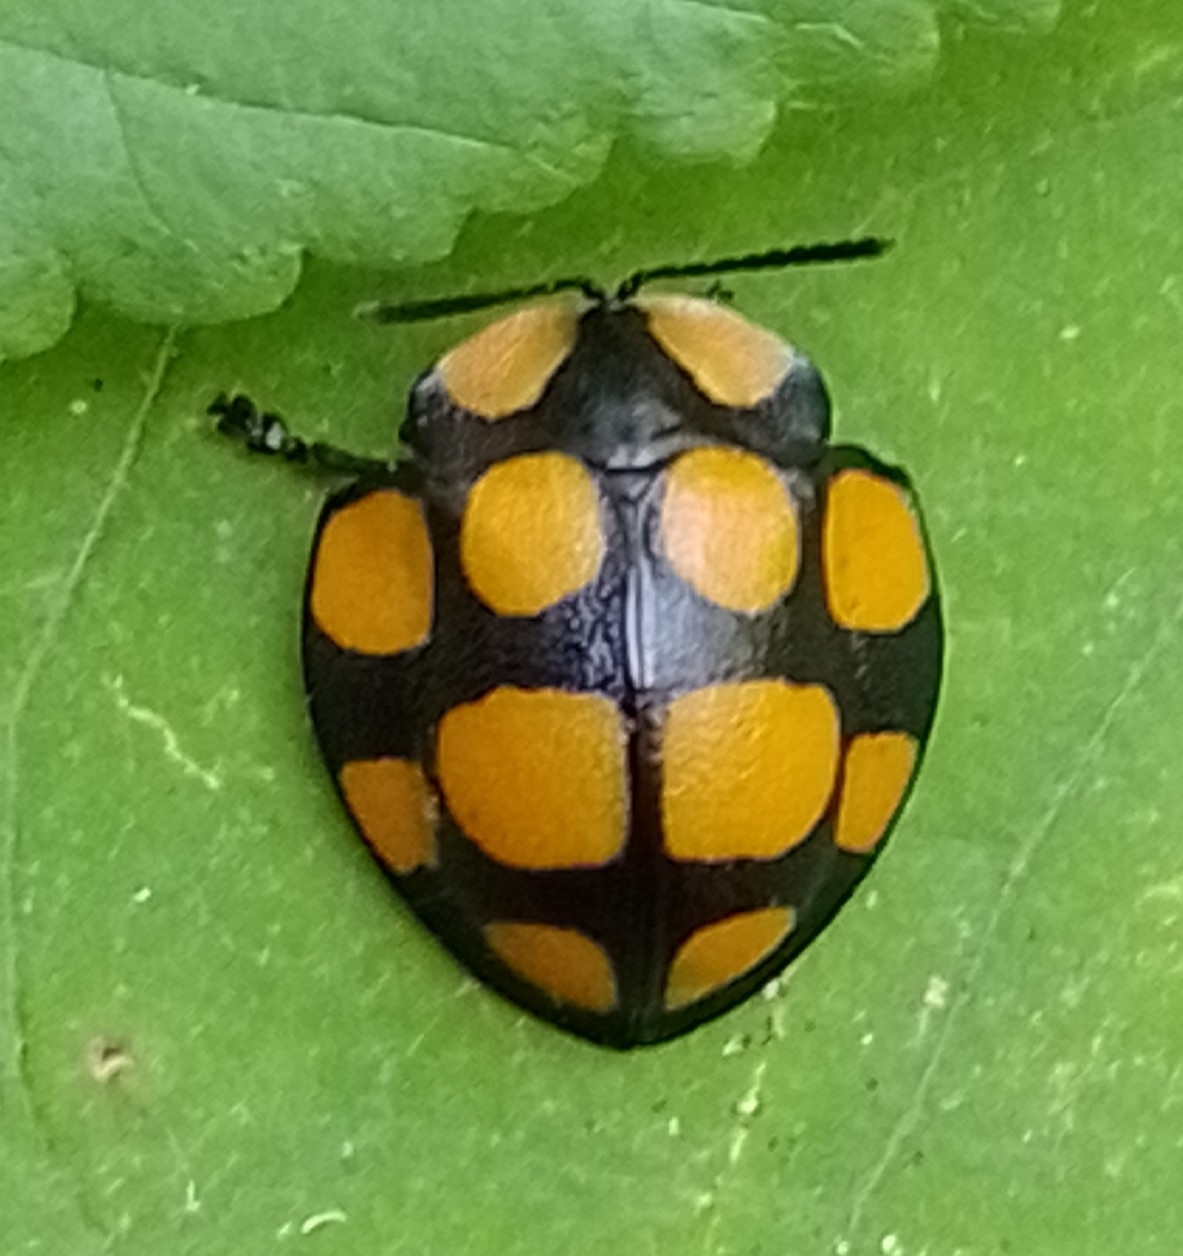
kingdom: Animalia
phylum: Arthropoda
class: Insecta
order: Coleoptera
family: Chrysomelidae
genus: Botanochara
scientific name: Botanochara decempustulata
